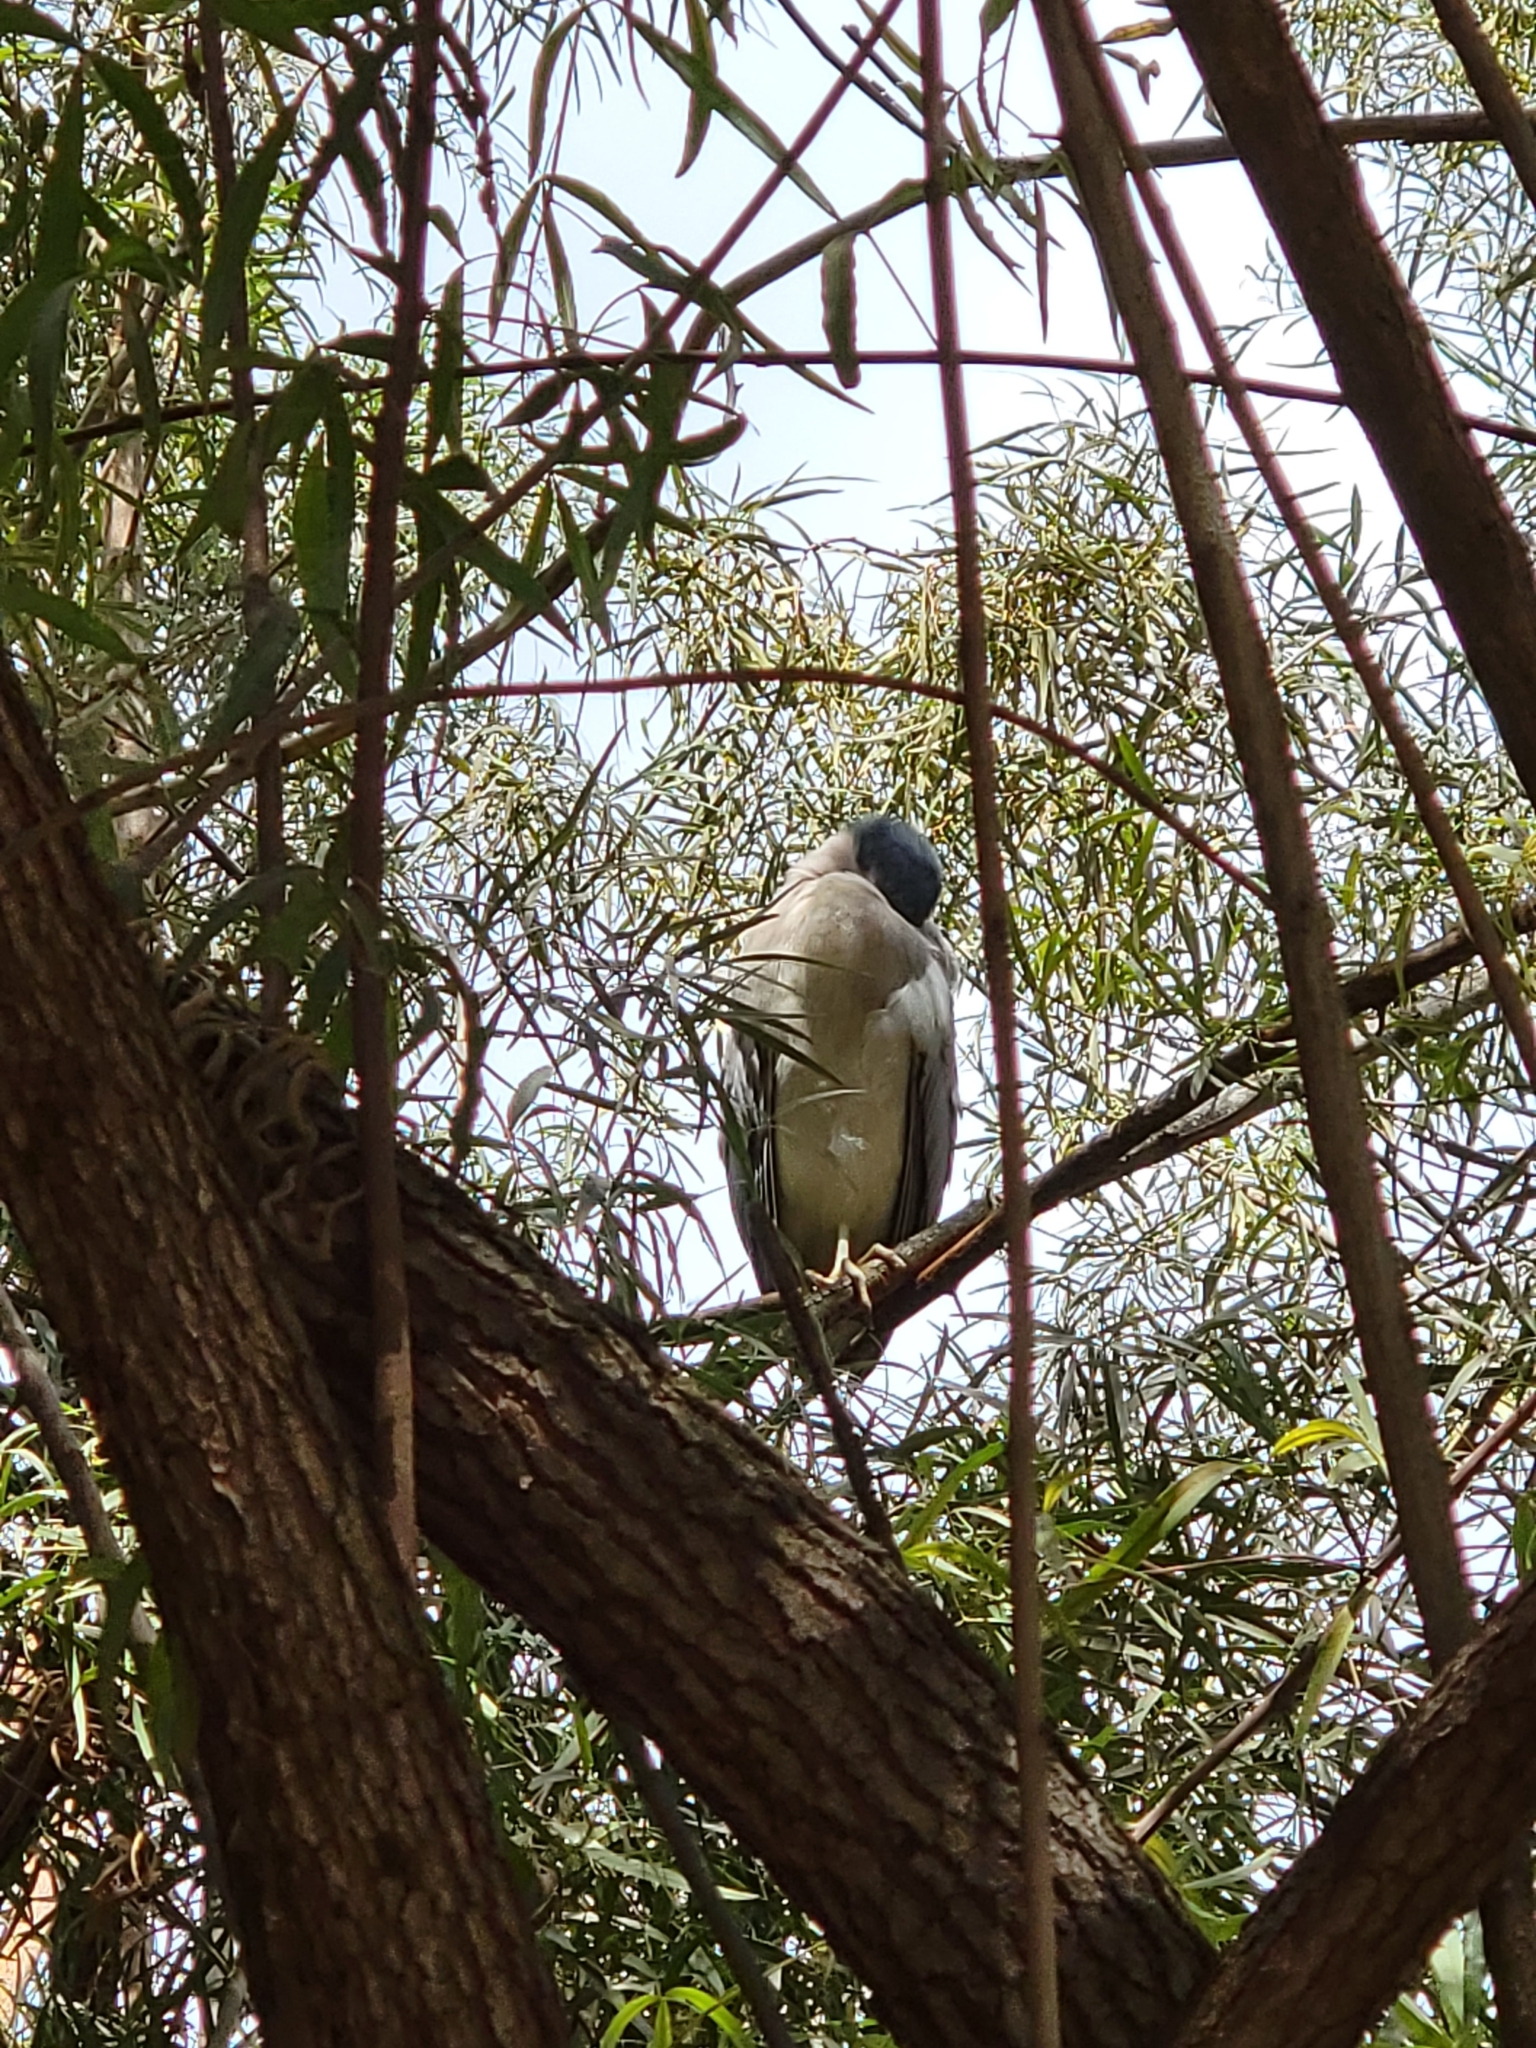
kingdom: Animalia
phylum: Chordata
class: Aves
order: Pelecaniformes
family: Ardeidae
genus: Nycticorax
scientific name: Nycticorax nycticorax
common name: Black-crowned night heron
